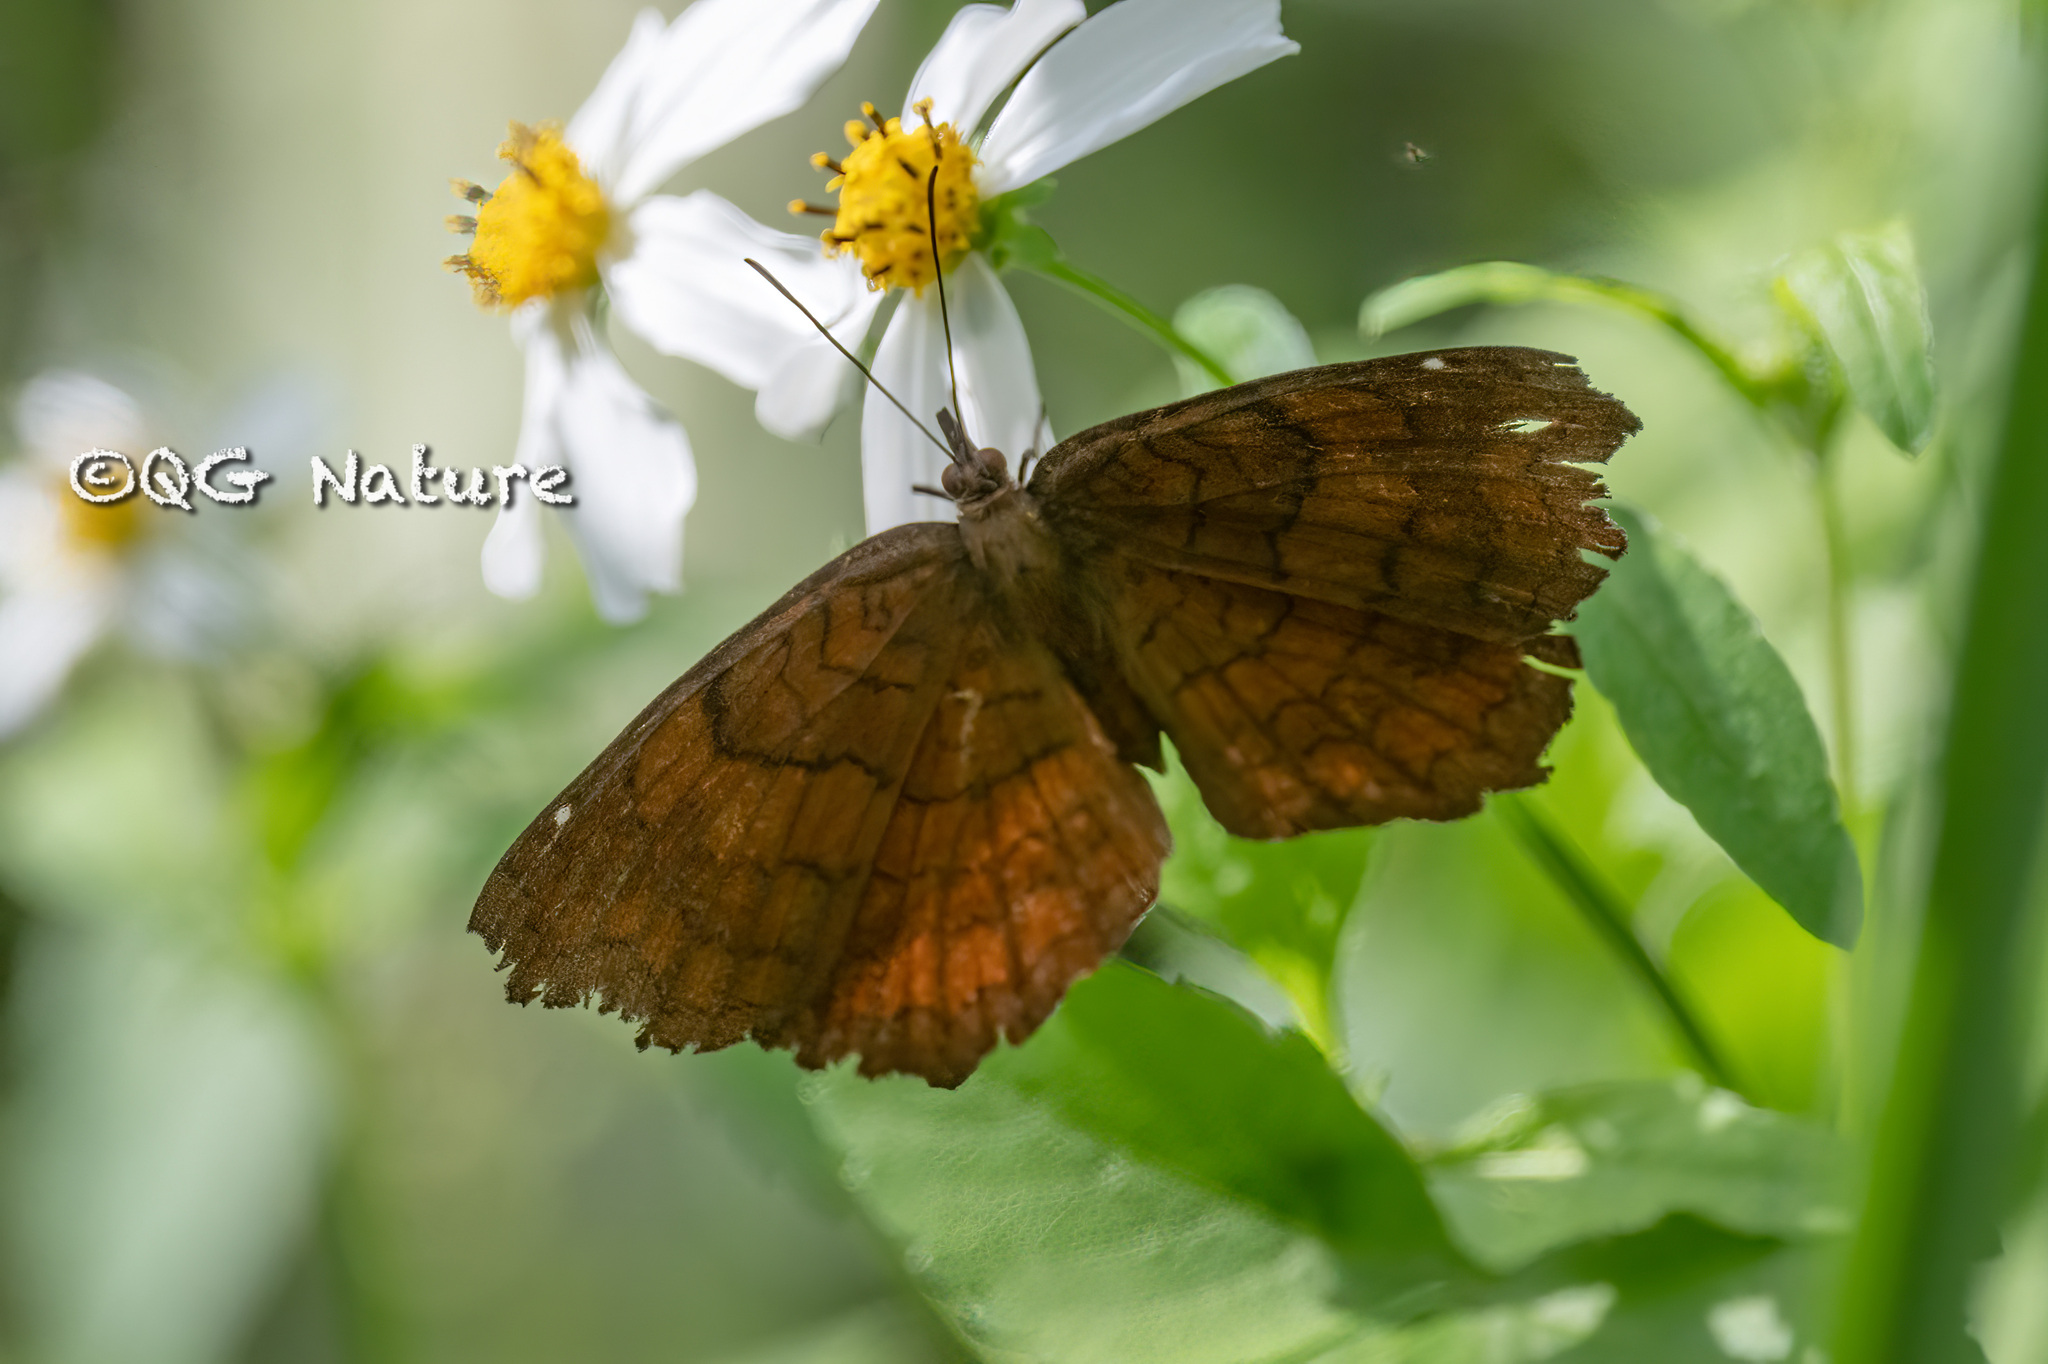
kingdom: Animalia
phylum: Arthropoda
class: Insecta
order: Lepidoptera
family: Nymphalidae
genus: Ariadne
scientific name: Ariadne ariadne
